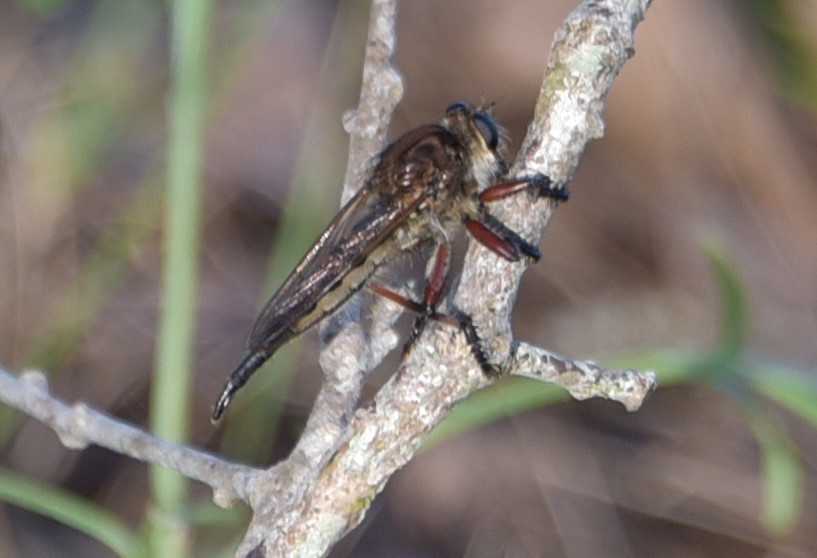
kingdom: Animalia
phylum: Arthropoda
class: Insecta
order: Diptera
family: Asilidae
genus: Promachus
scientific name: Promachus hinei
